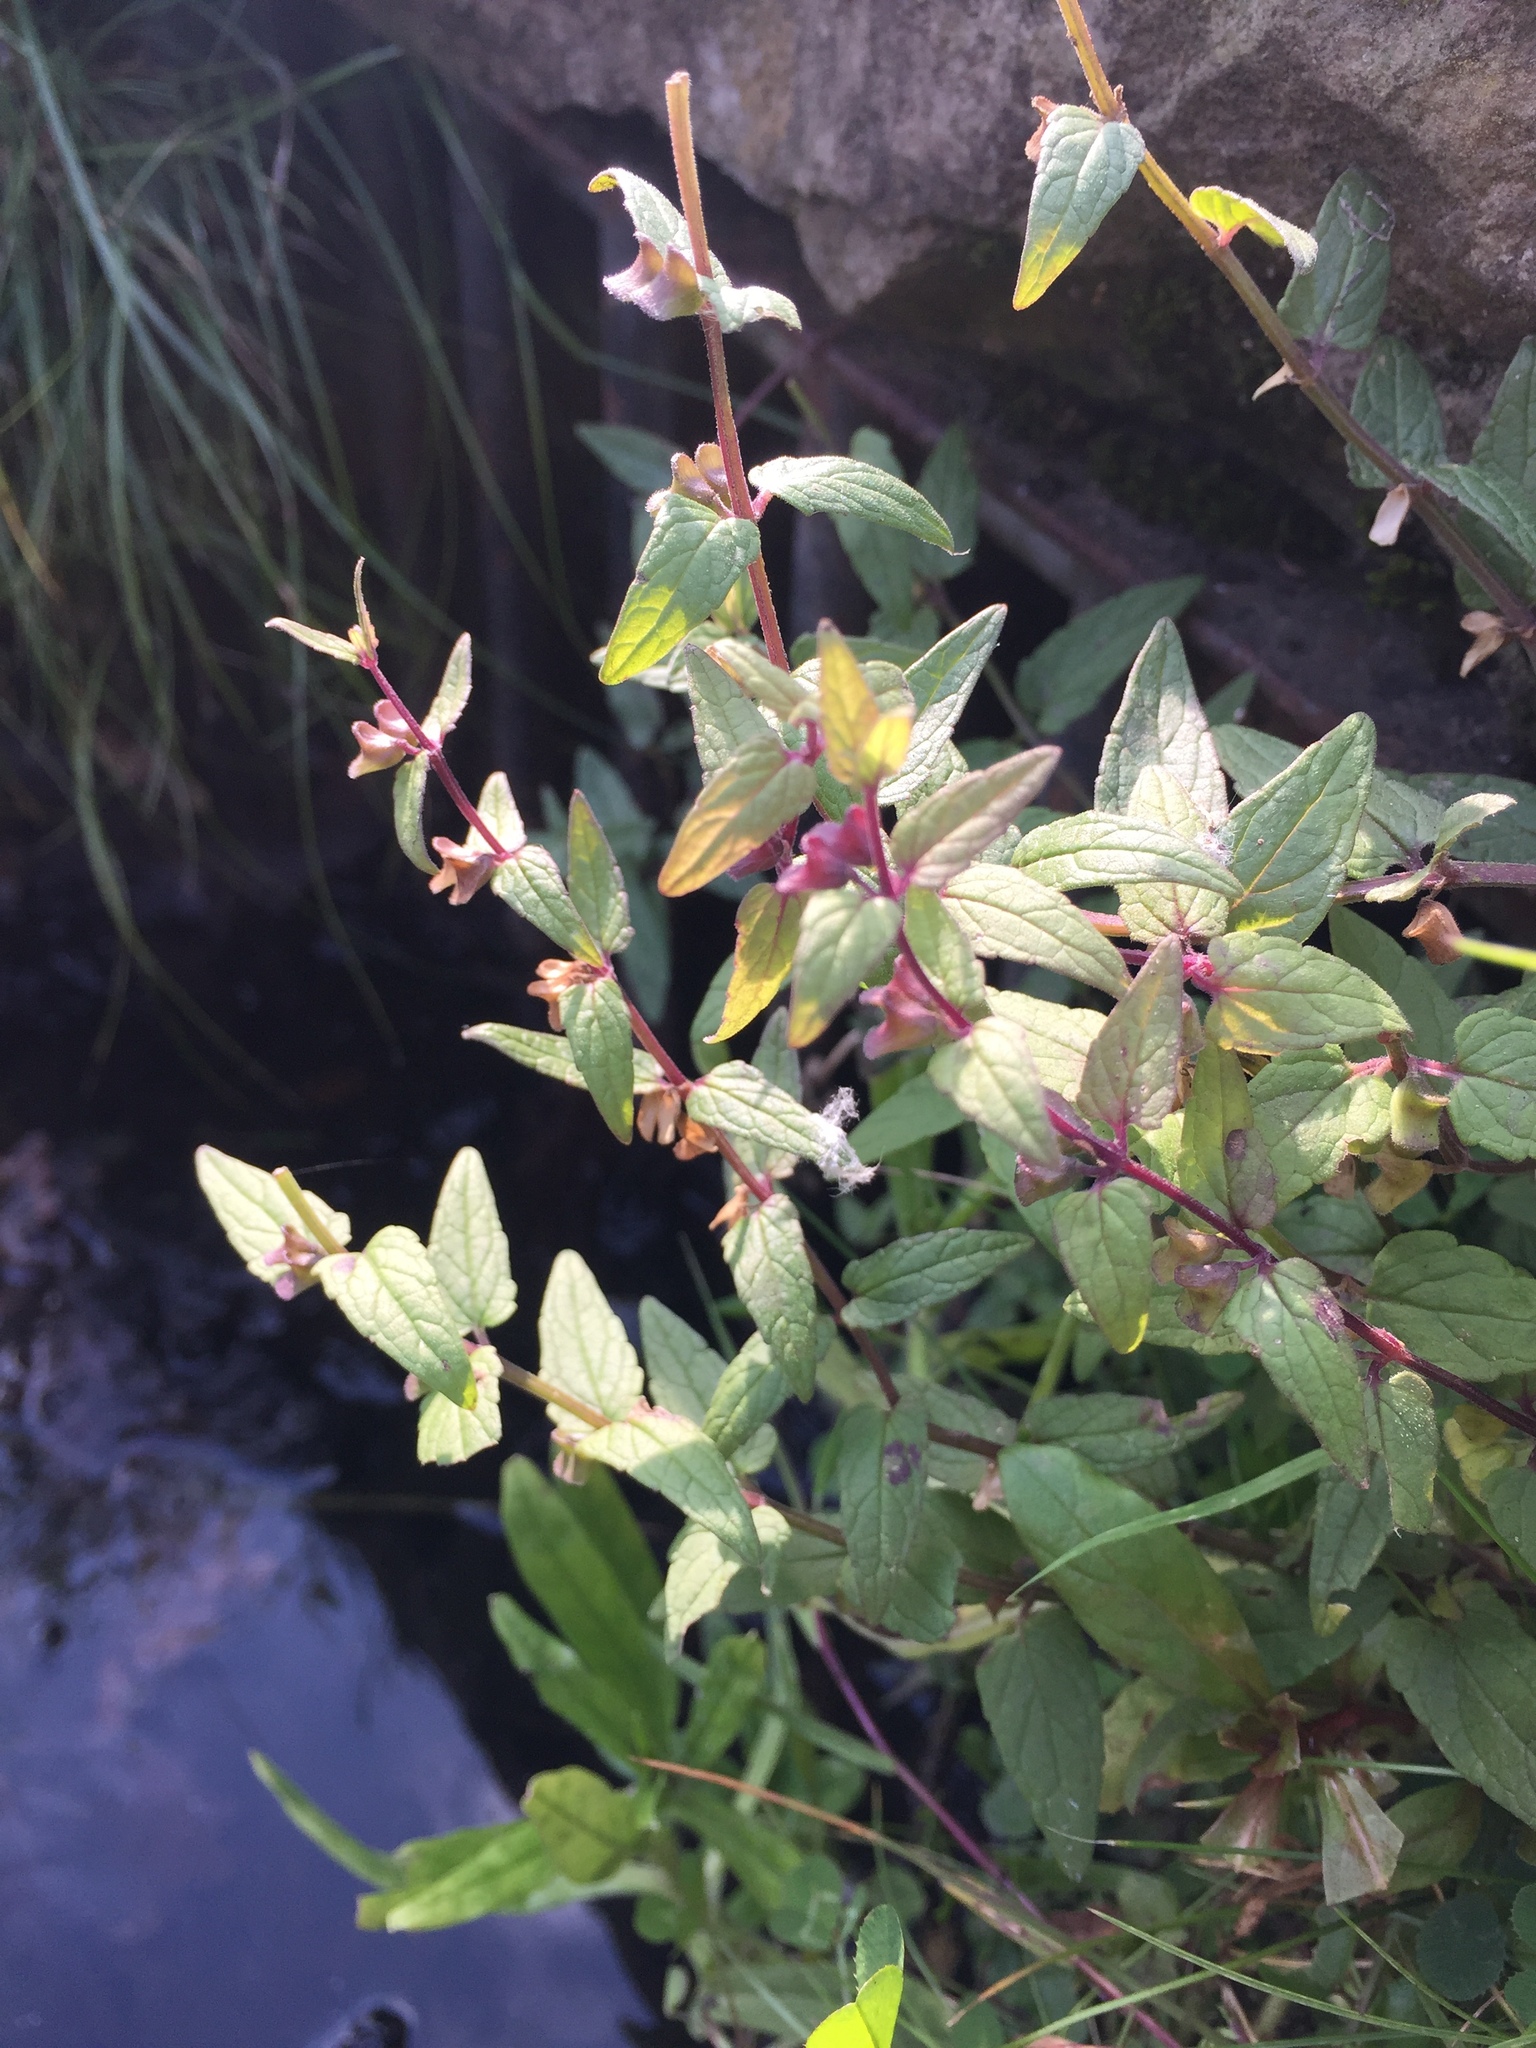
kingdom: Plantae
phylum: Tracheophyta
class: Magnoliopsida
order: Lamiales
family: Lamiaceae
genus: Scutellaria
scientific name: Scutellaria galericulata
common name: Skullcap
